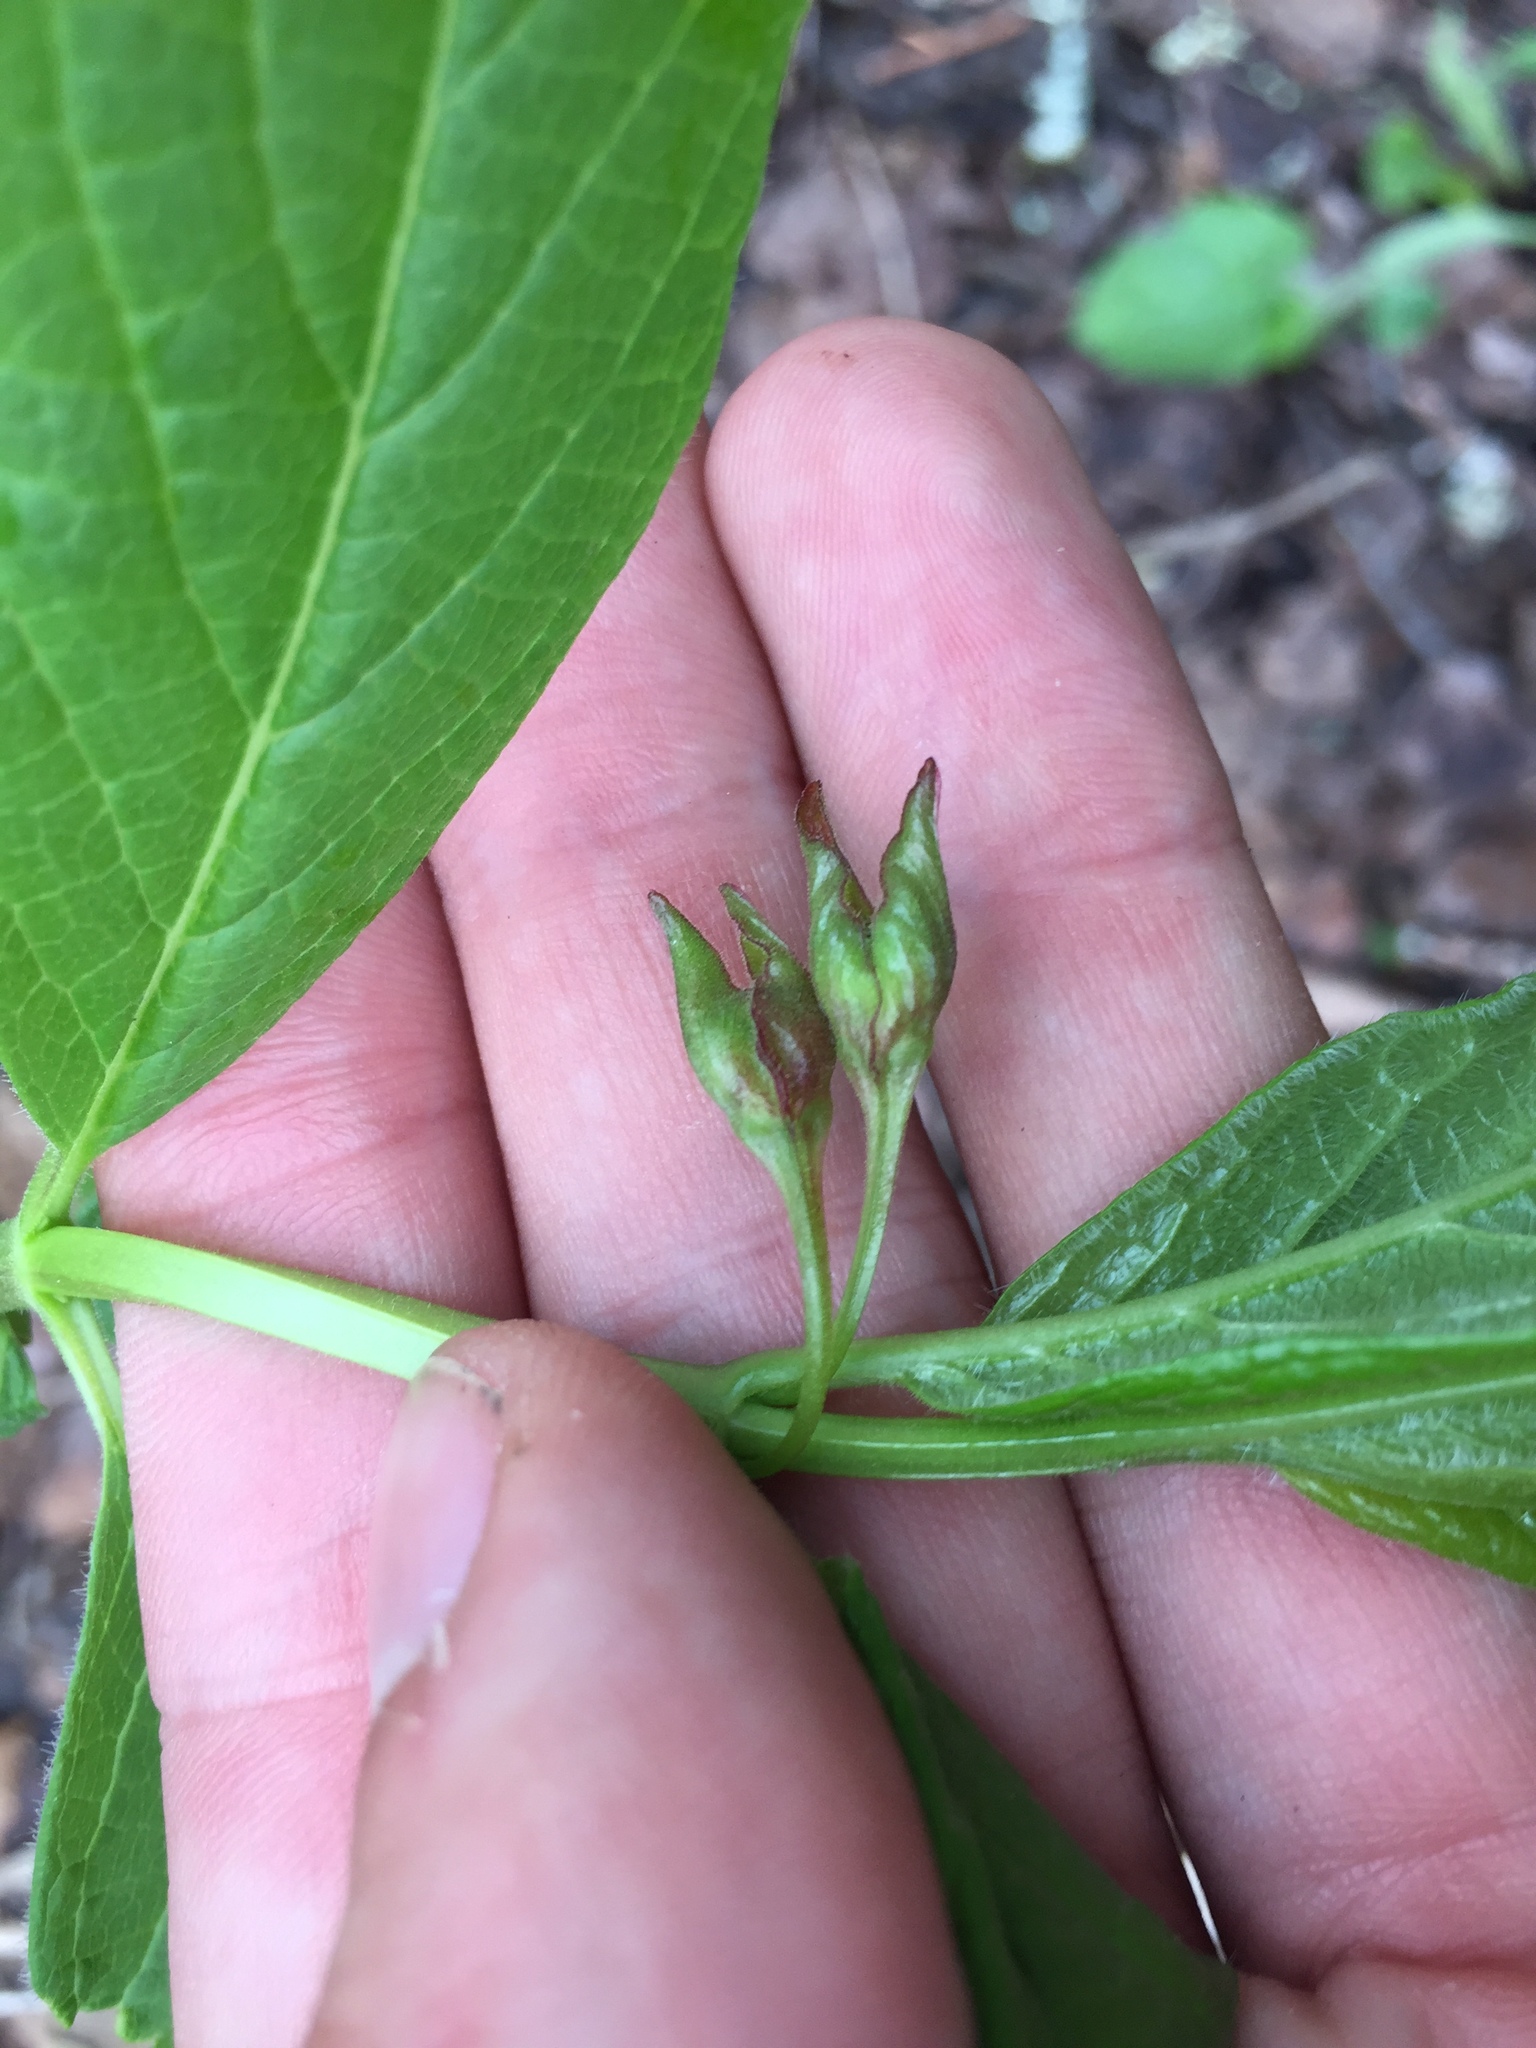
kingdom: Plantae
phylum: Tracheophyta
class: Magnoliopsida
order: Dipsacales
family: Caprifoliaceae
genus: Lonicera
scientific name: Lonicera involucrata
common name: Californian honeysuckle
